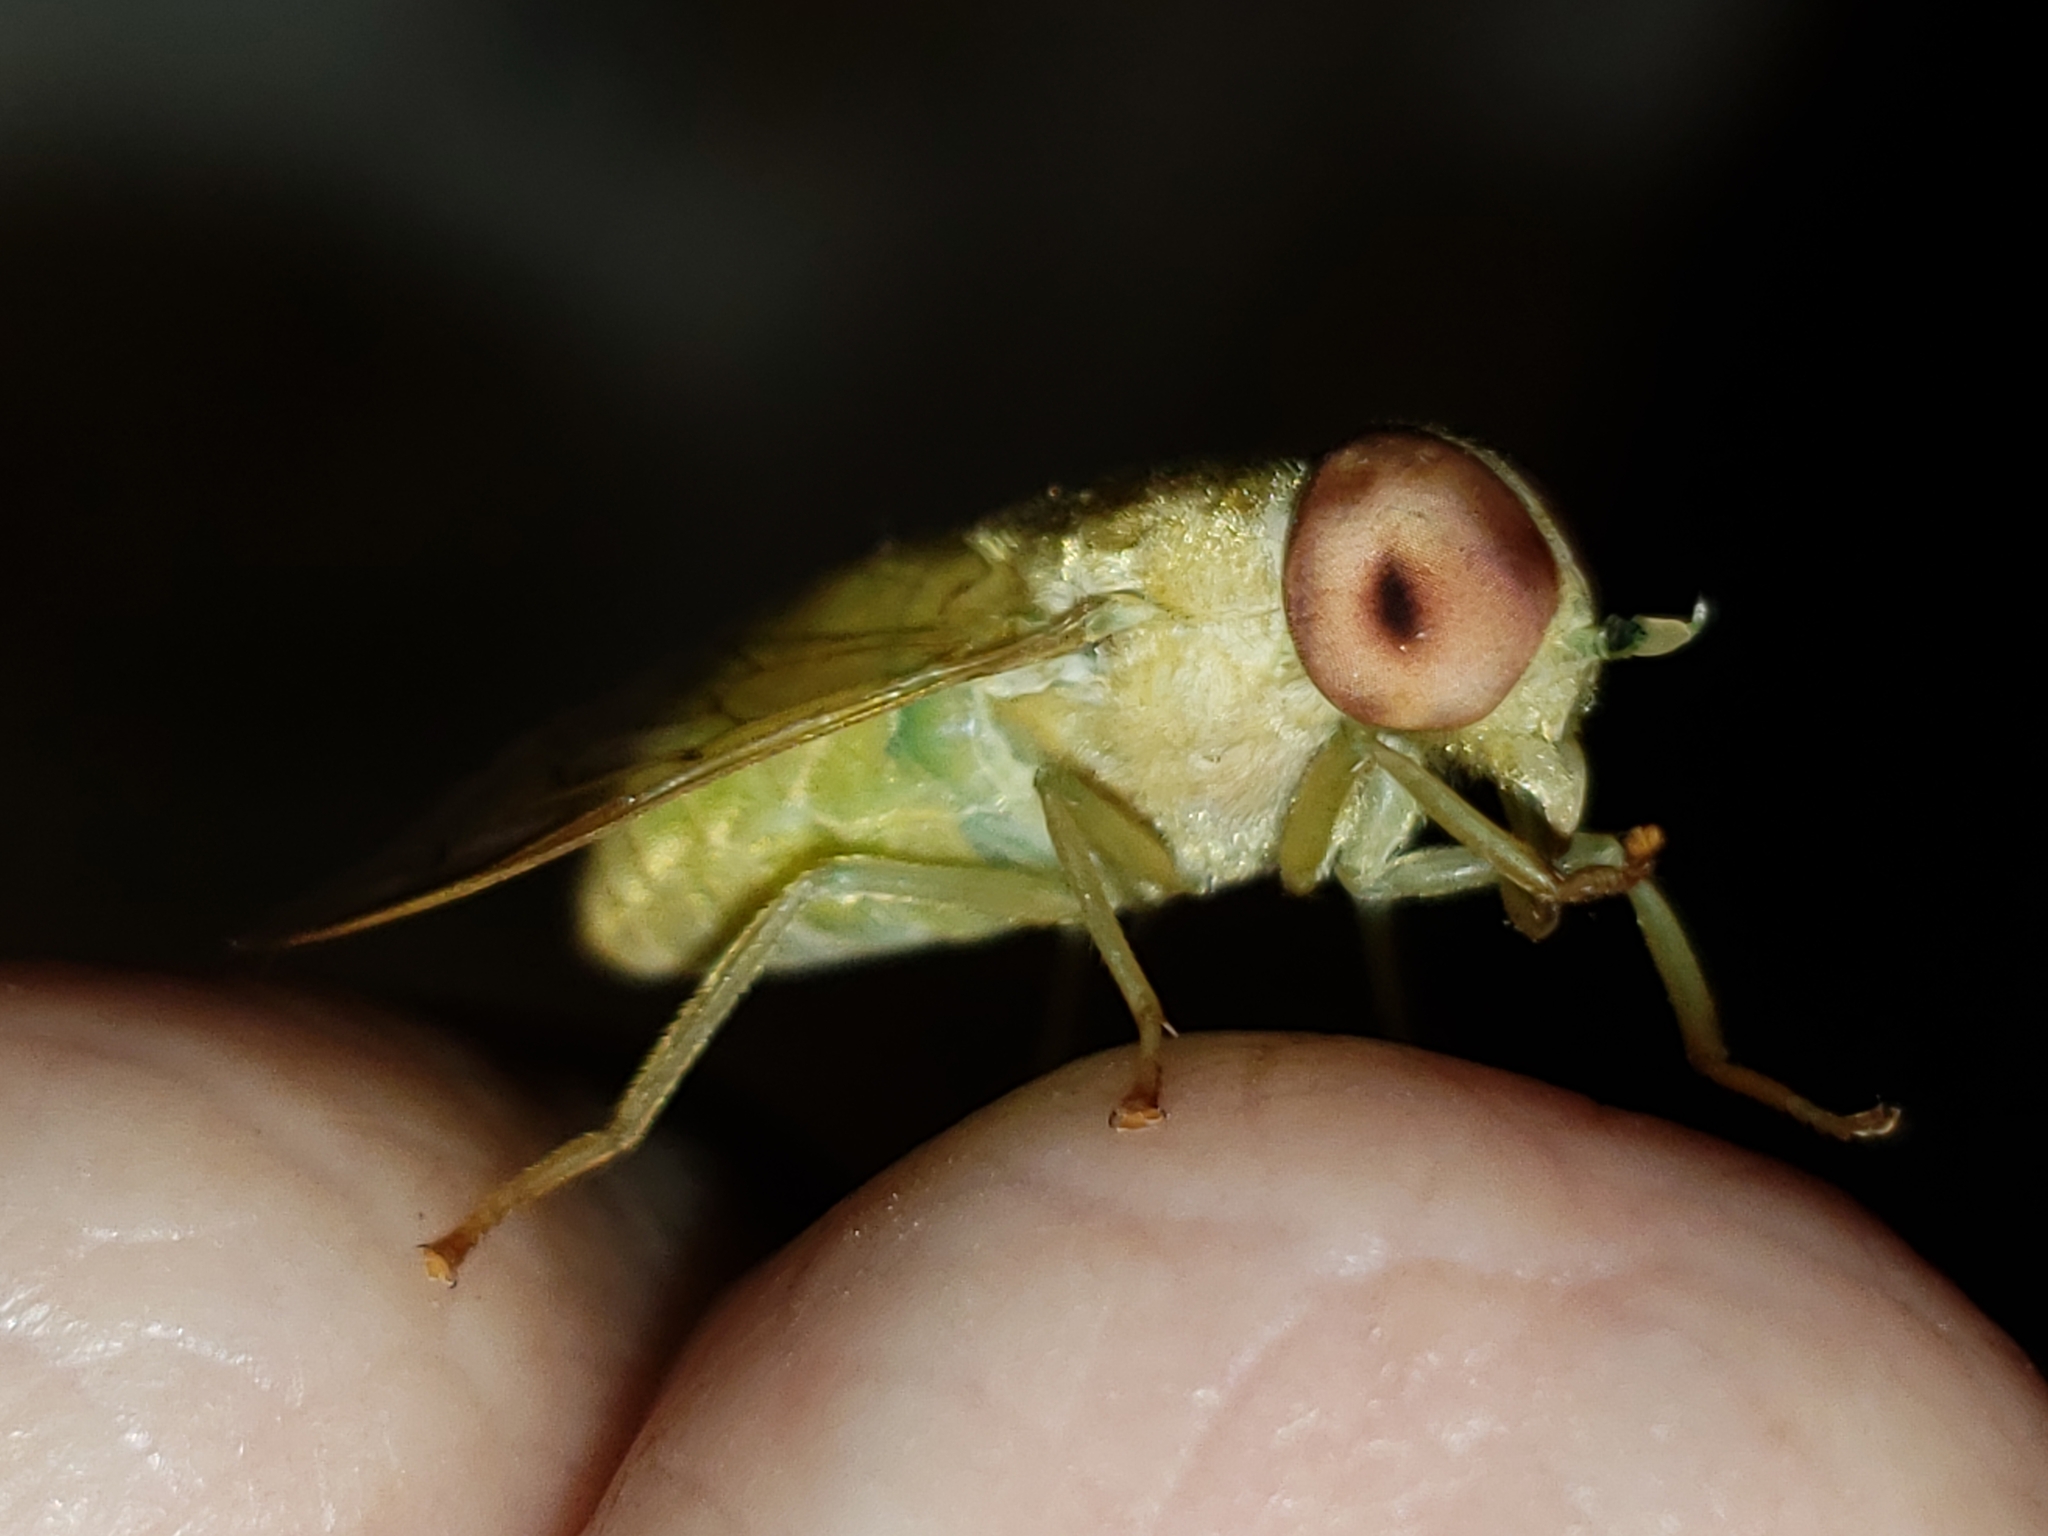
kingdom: Animalia
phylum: Arthropoda
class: Insecta
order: Diptera
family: Tabanidae
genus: Chlorotabanus
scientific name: Chlorotabanus crepuscularis
